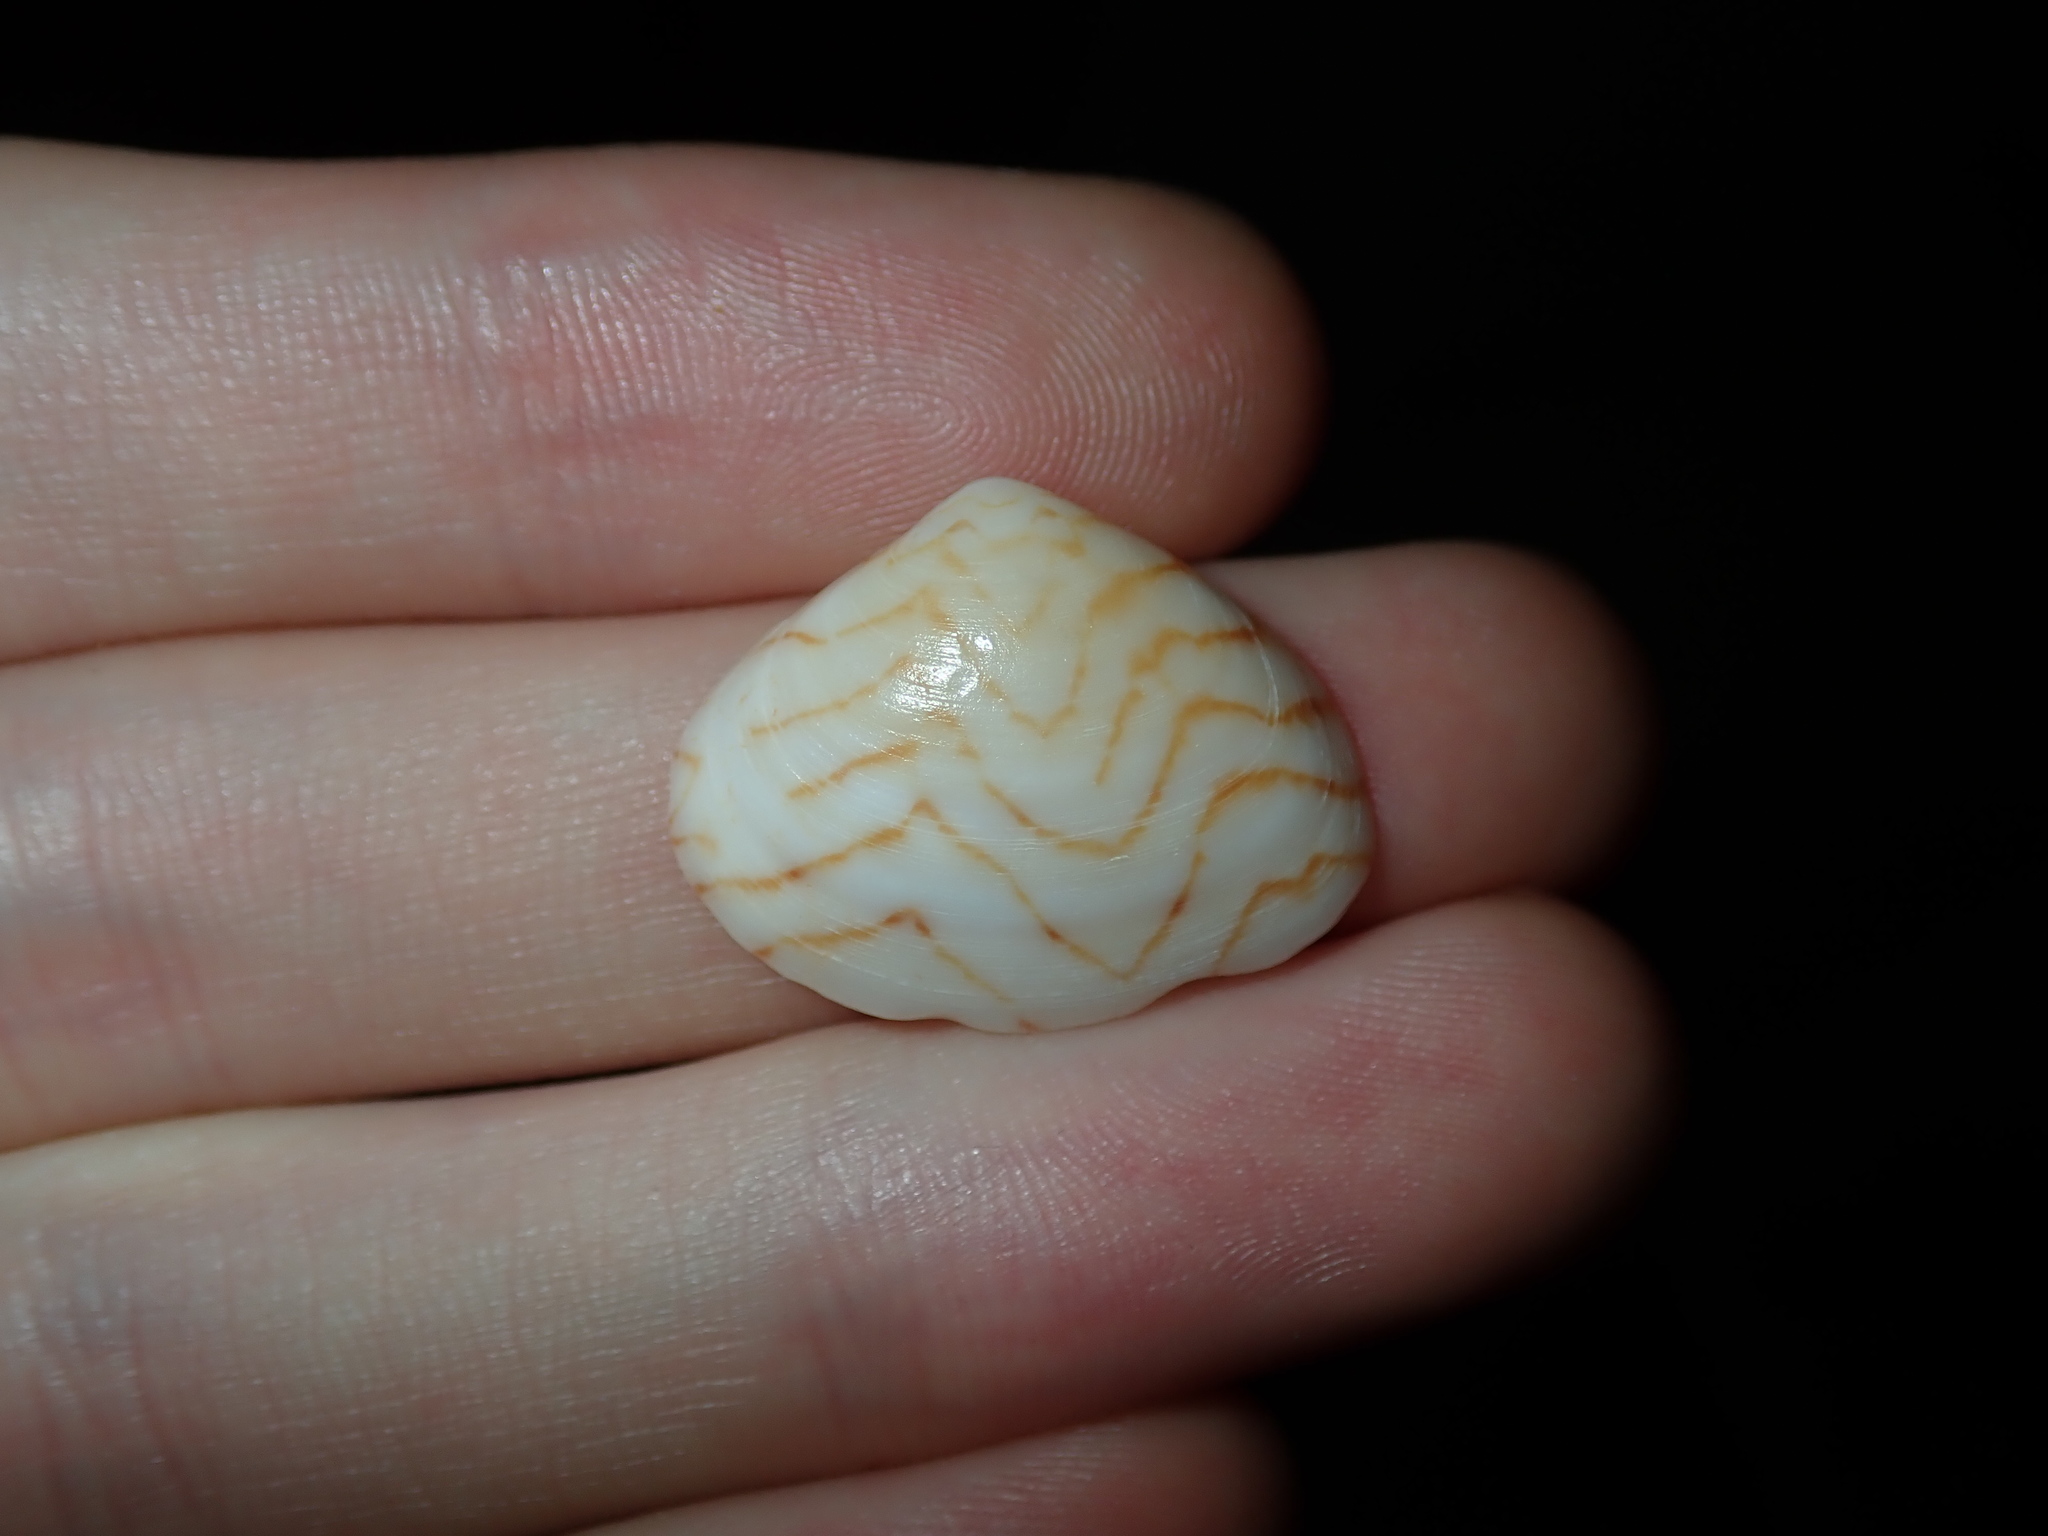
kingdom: Animalia
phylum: Mollusca
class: Bivalvia
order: Venerida
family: Veneridae
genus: Gomphina
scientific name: Gomphina undulosa
